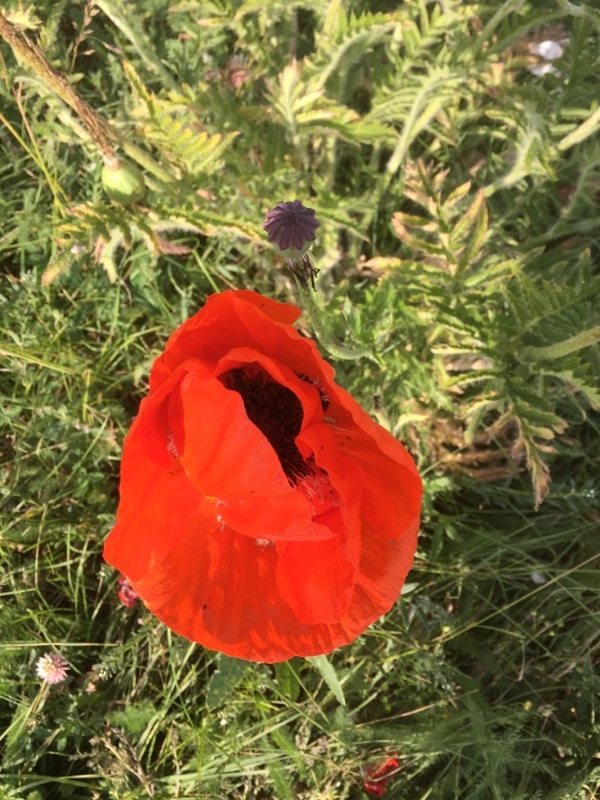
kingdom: Plantae
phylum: Tracheophyta
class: Magnoliopsida
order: Ranunculales
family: Papaveraceae
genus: Papaver
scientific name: Papaver orientale
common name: Oriental poppy
